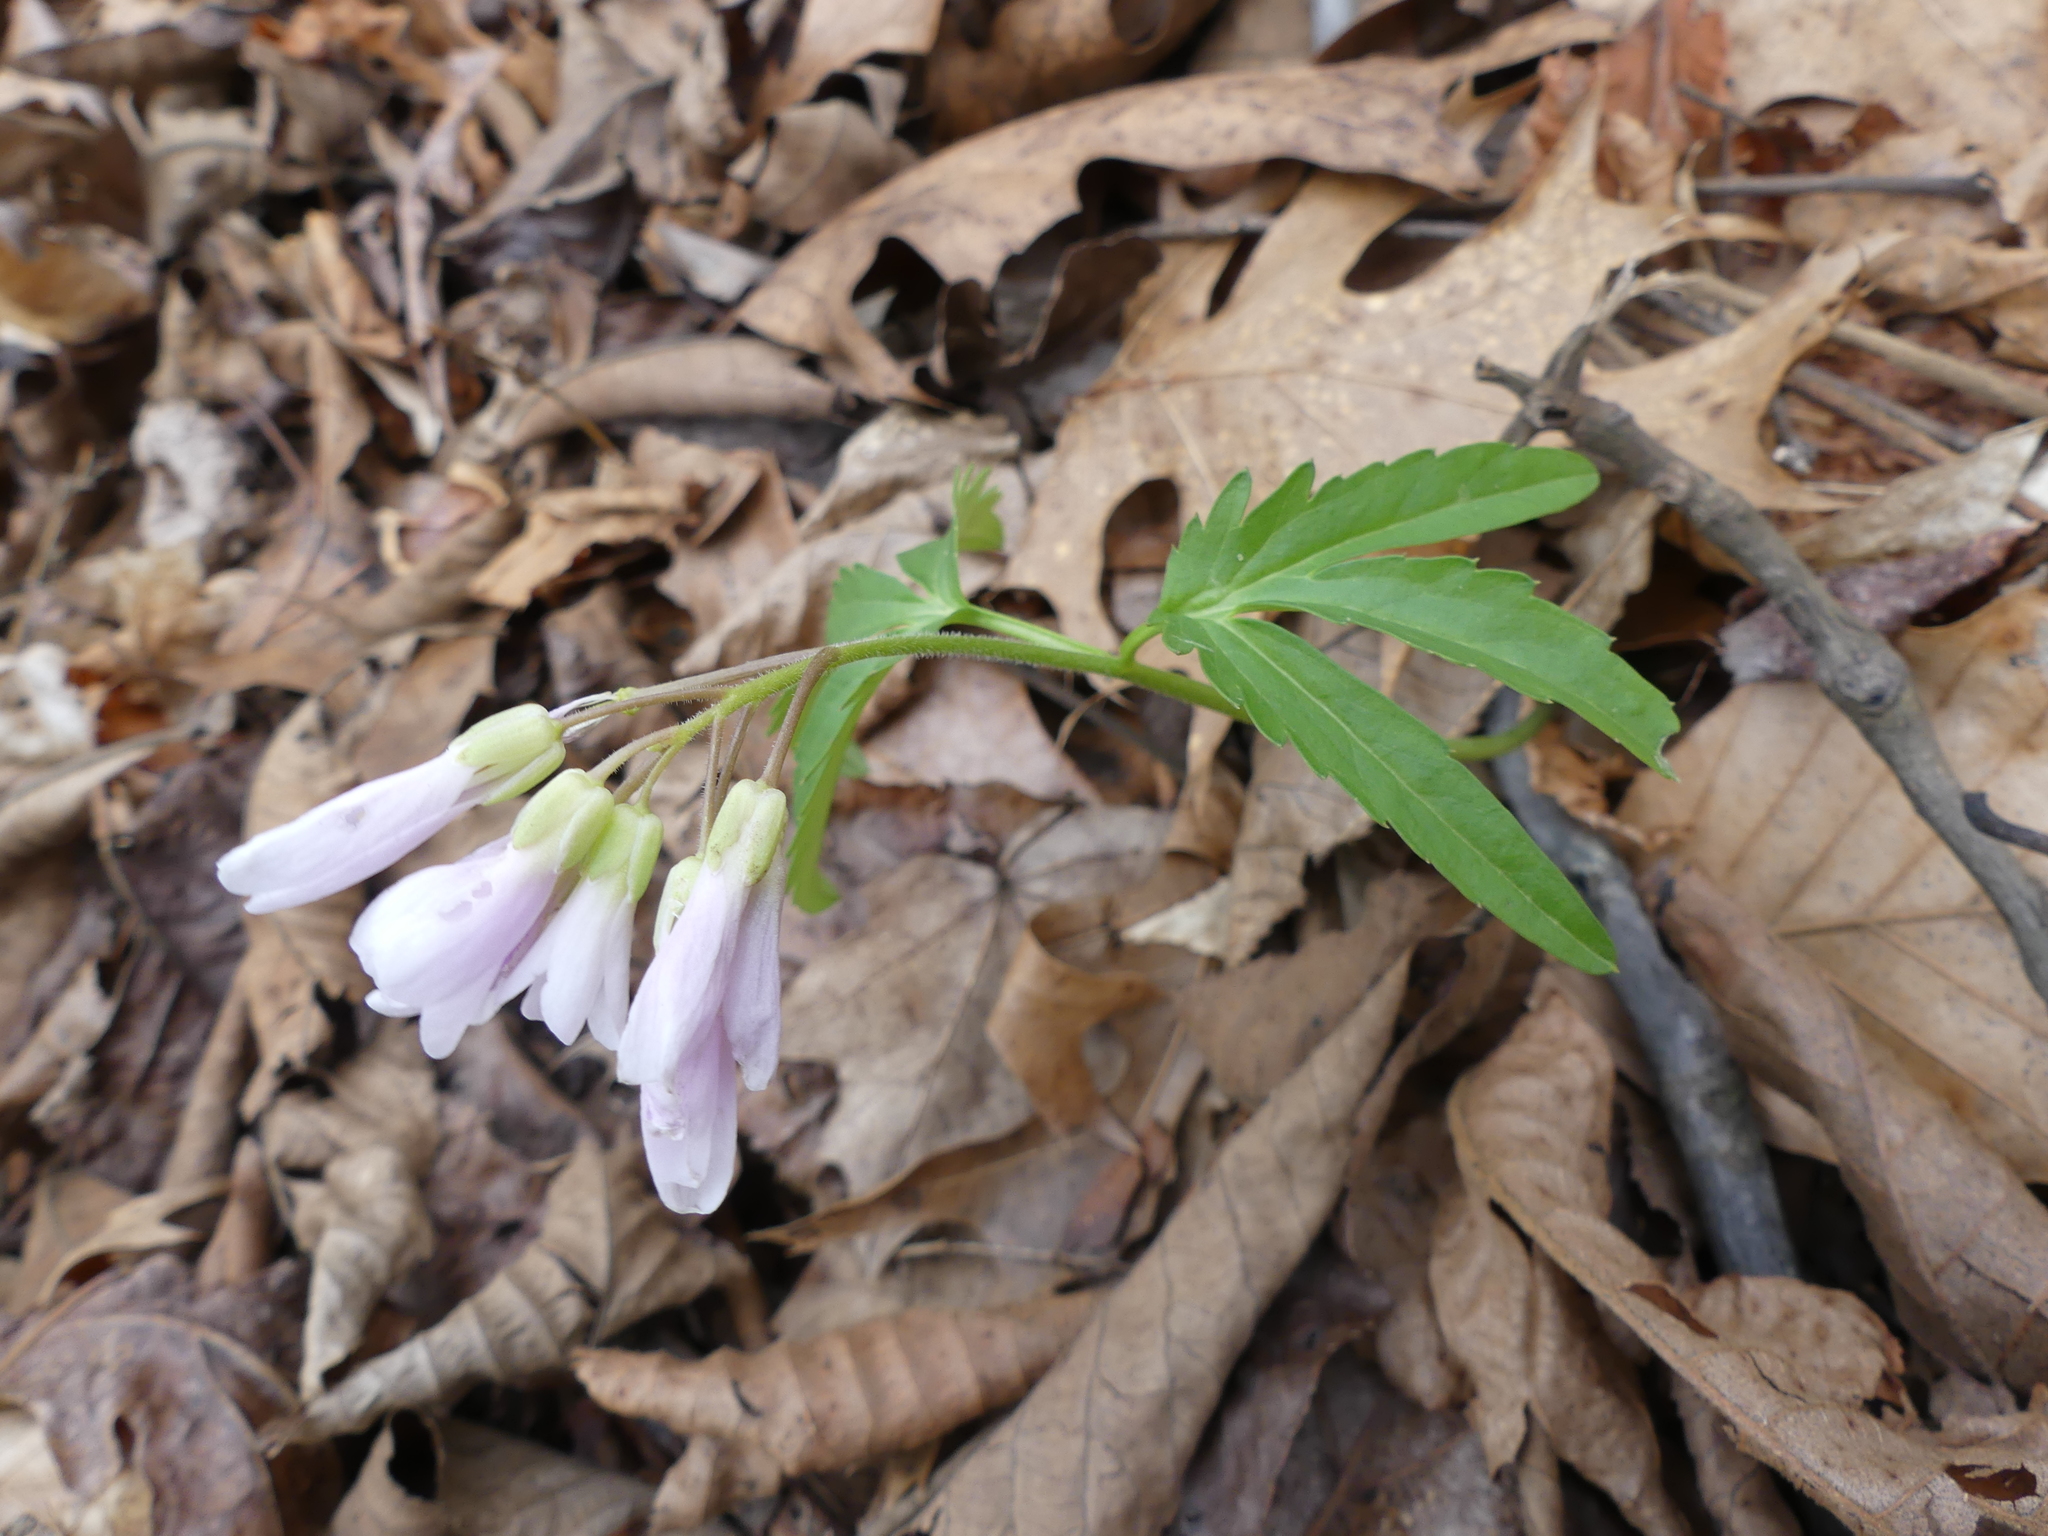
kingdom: Plantae
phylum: Tracheophyta
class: Magnoliopsida
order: Brassicales
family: Brassicaceae
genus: Cardamine
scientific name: Cardamine concatenata
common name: Cut-leaf toothcup
